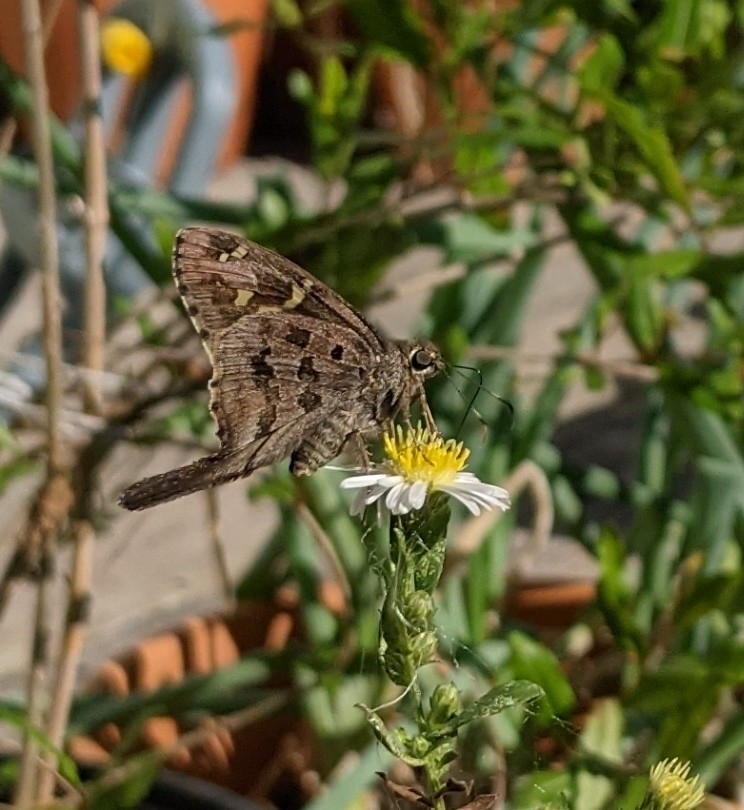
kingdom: Animalia
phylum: Arthropoda
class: Insecta
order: Lepidoptera
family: Hesperiidae
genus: Thorybes
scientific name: Thorybes
